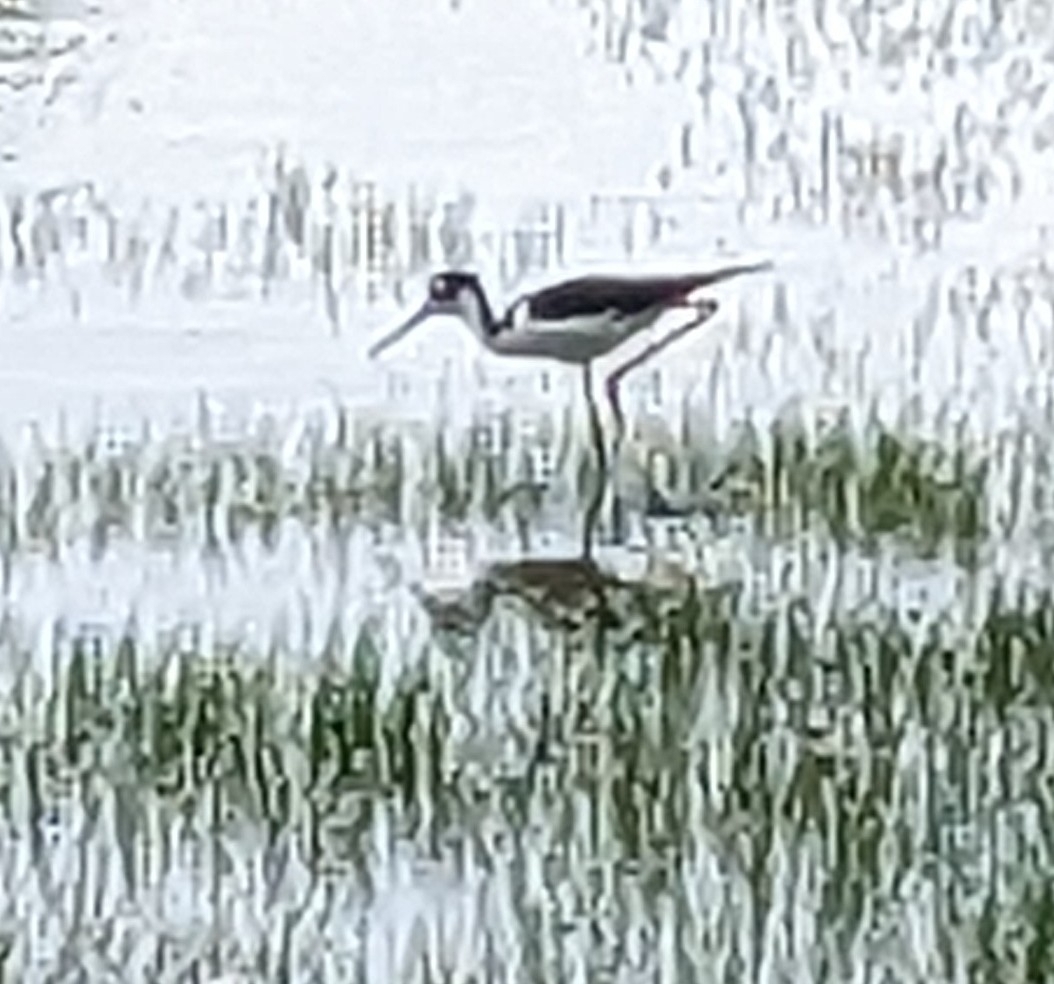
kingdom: Animalia
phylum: Chordata
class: Aves
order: Charadriiformes
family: Recurvirostridae
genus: Himantopus
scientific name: Himantopus mexicanus
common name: Black-necked stilt
